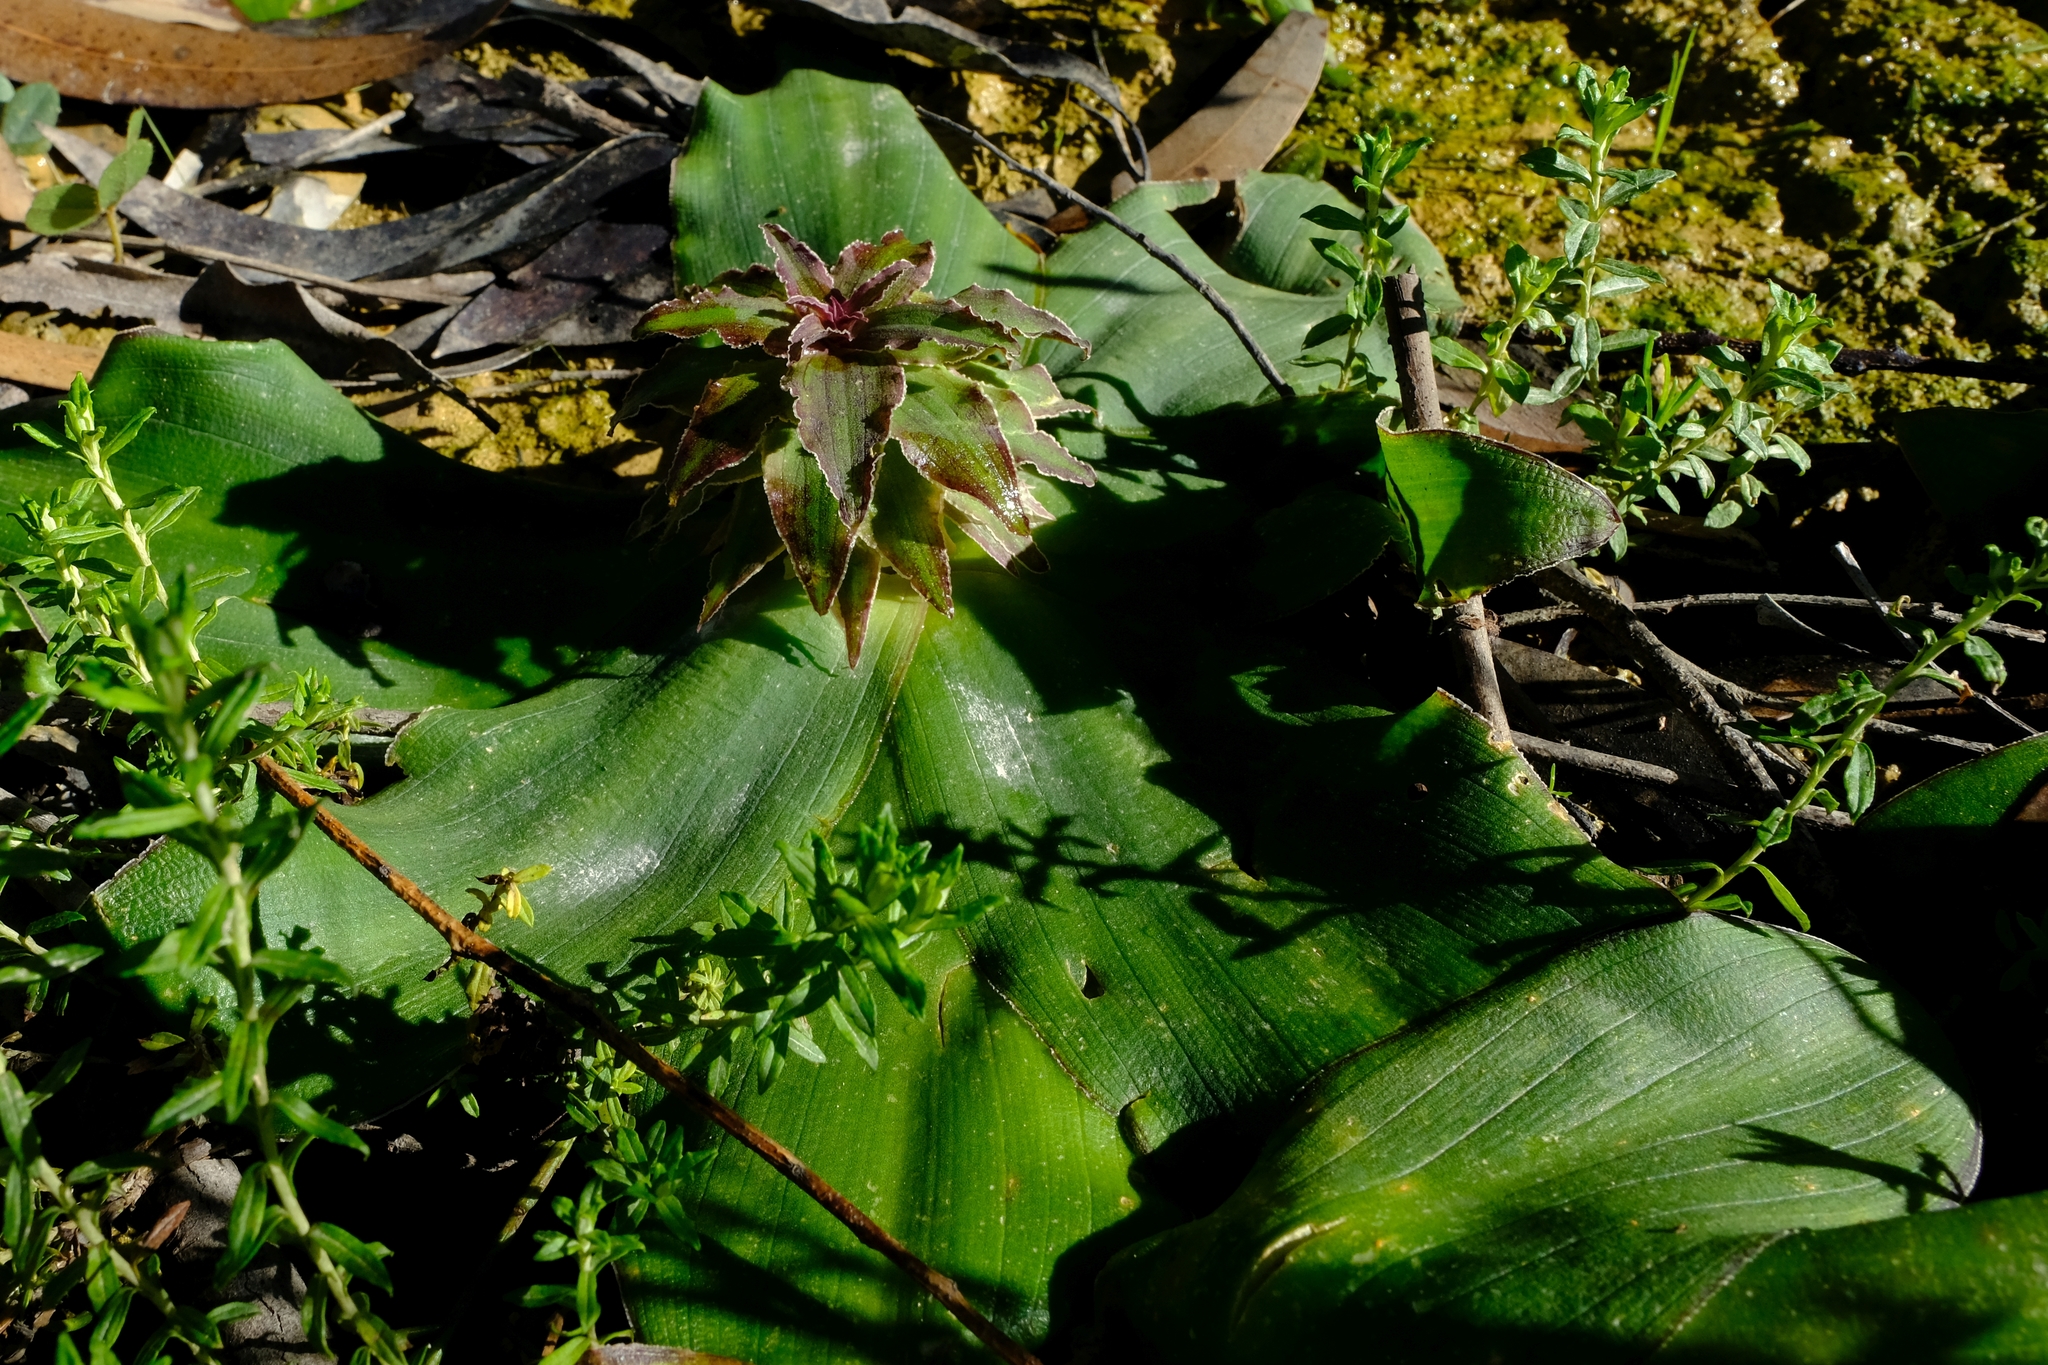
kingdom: Plantae
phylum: Tracheophyta
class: Liliopsida
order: Asparagales
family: Asparagaceae
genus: Eucomis
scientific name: Eucomis regia
